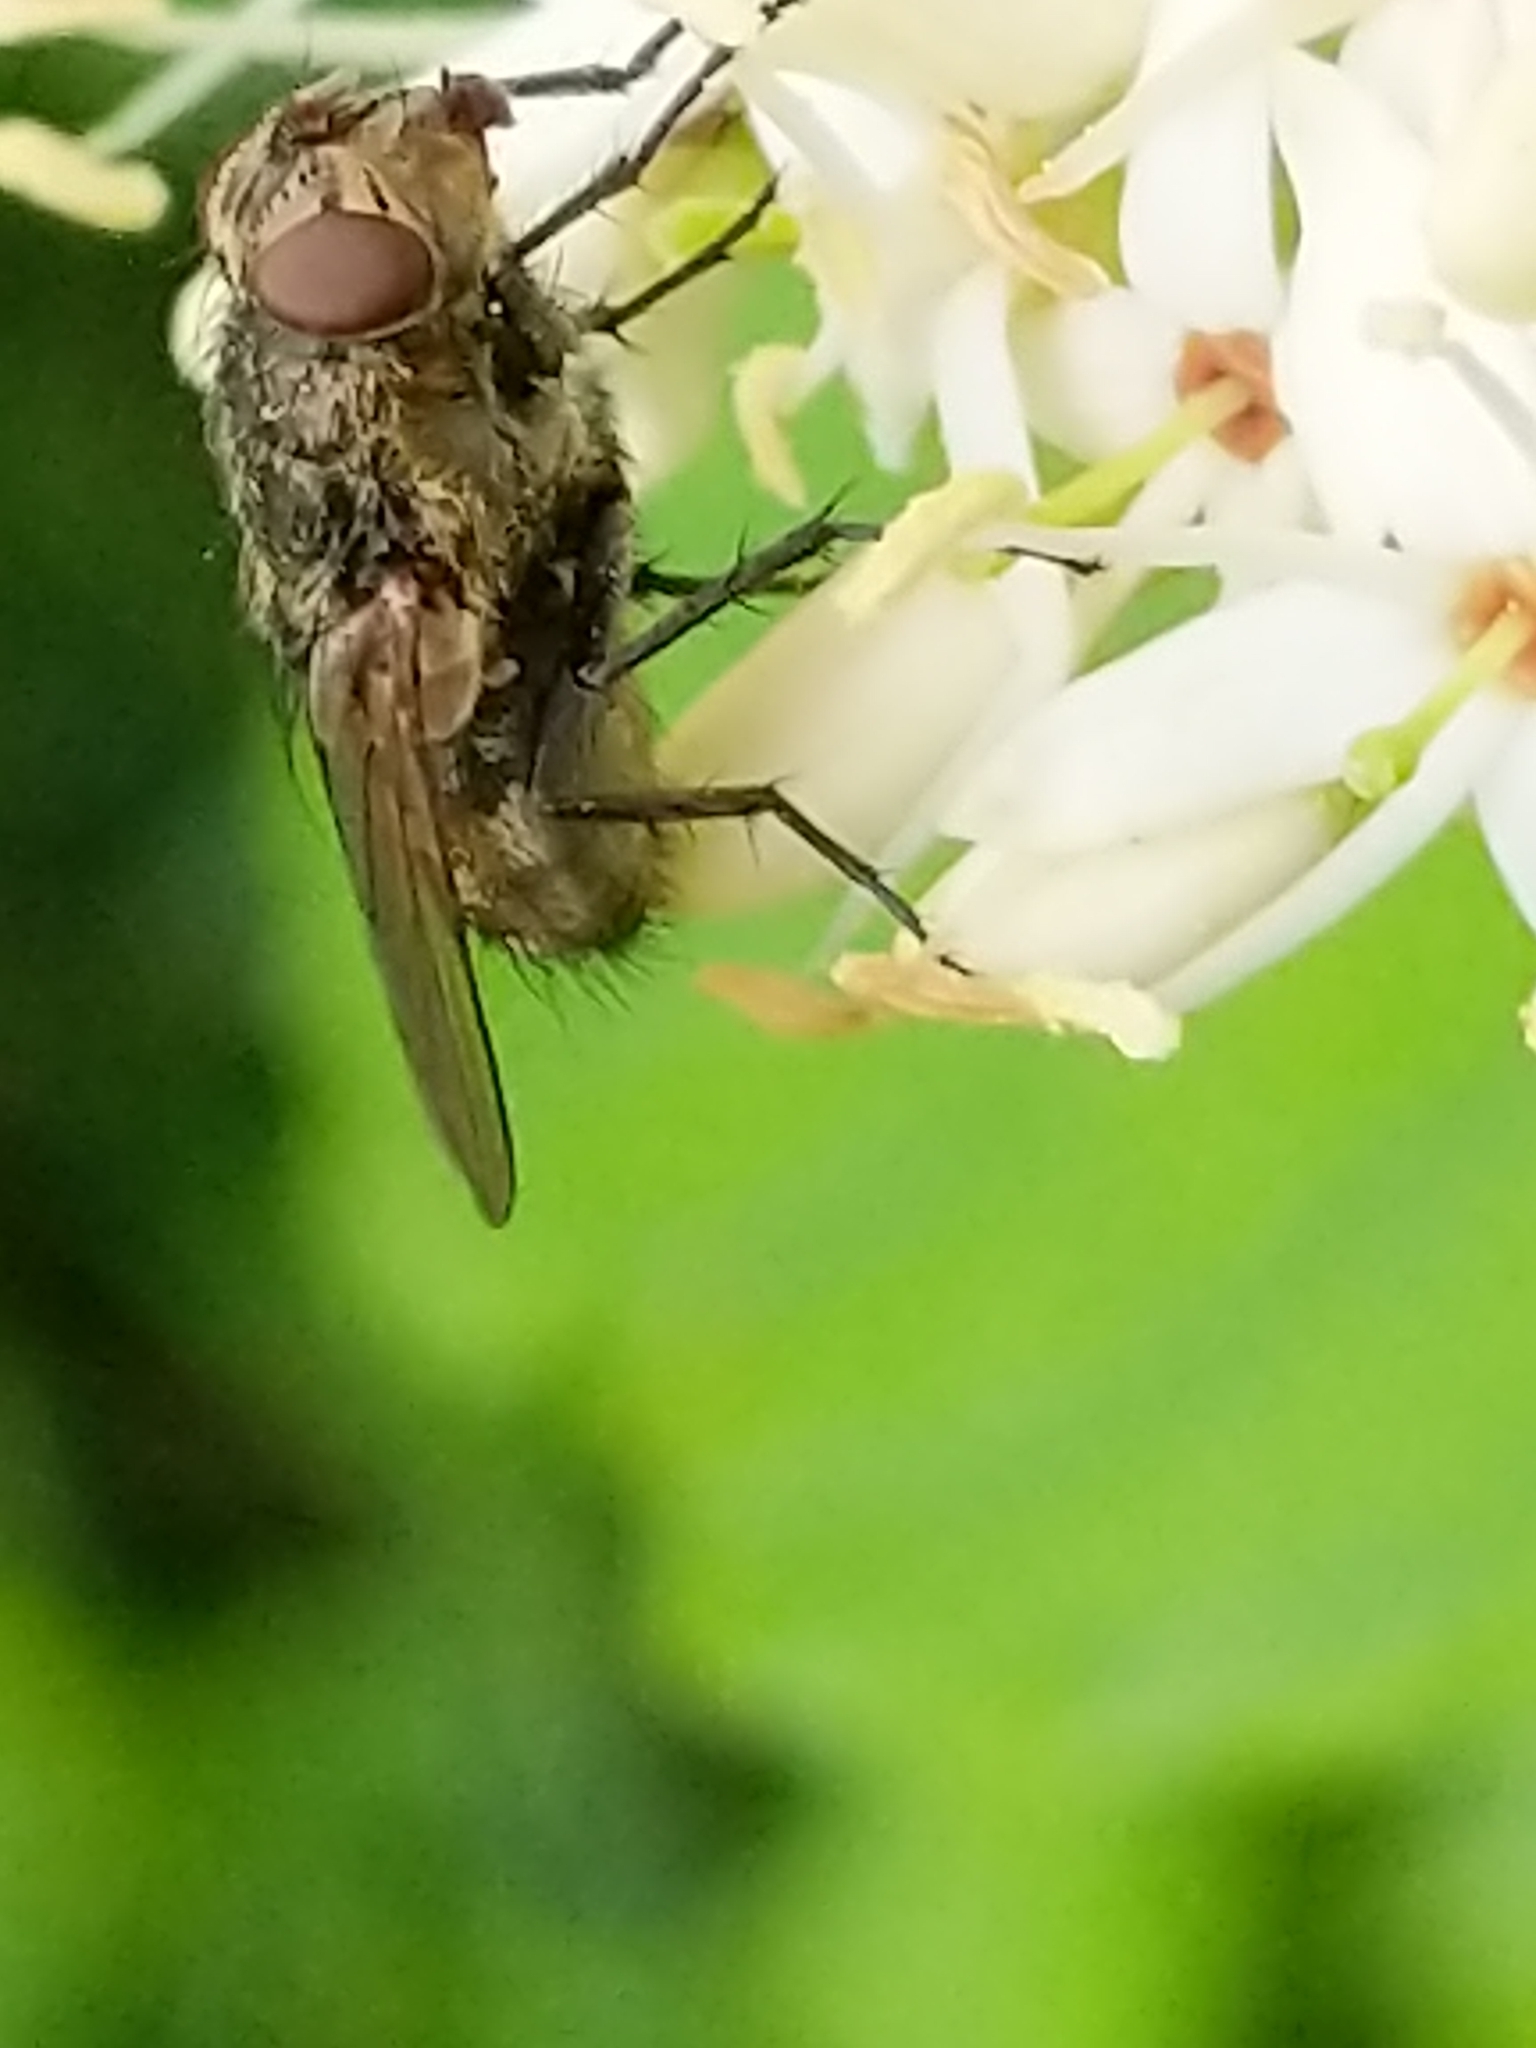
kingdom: Animalia
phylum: Arthropoda
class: Insecta
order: Diptera
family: Polleniidae
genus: Pollenia
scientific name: Pollenia
